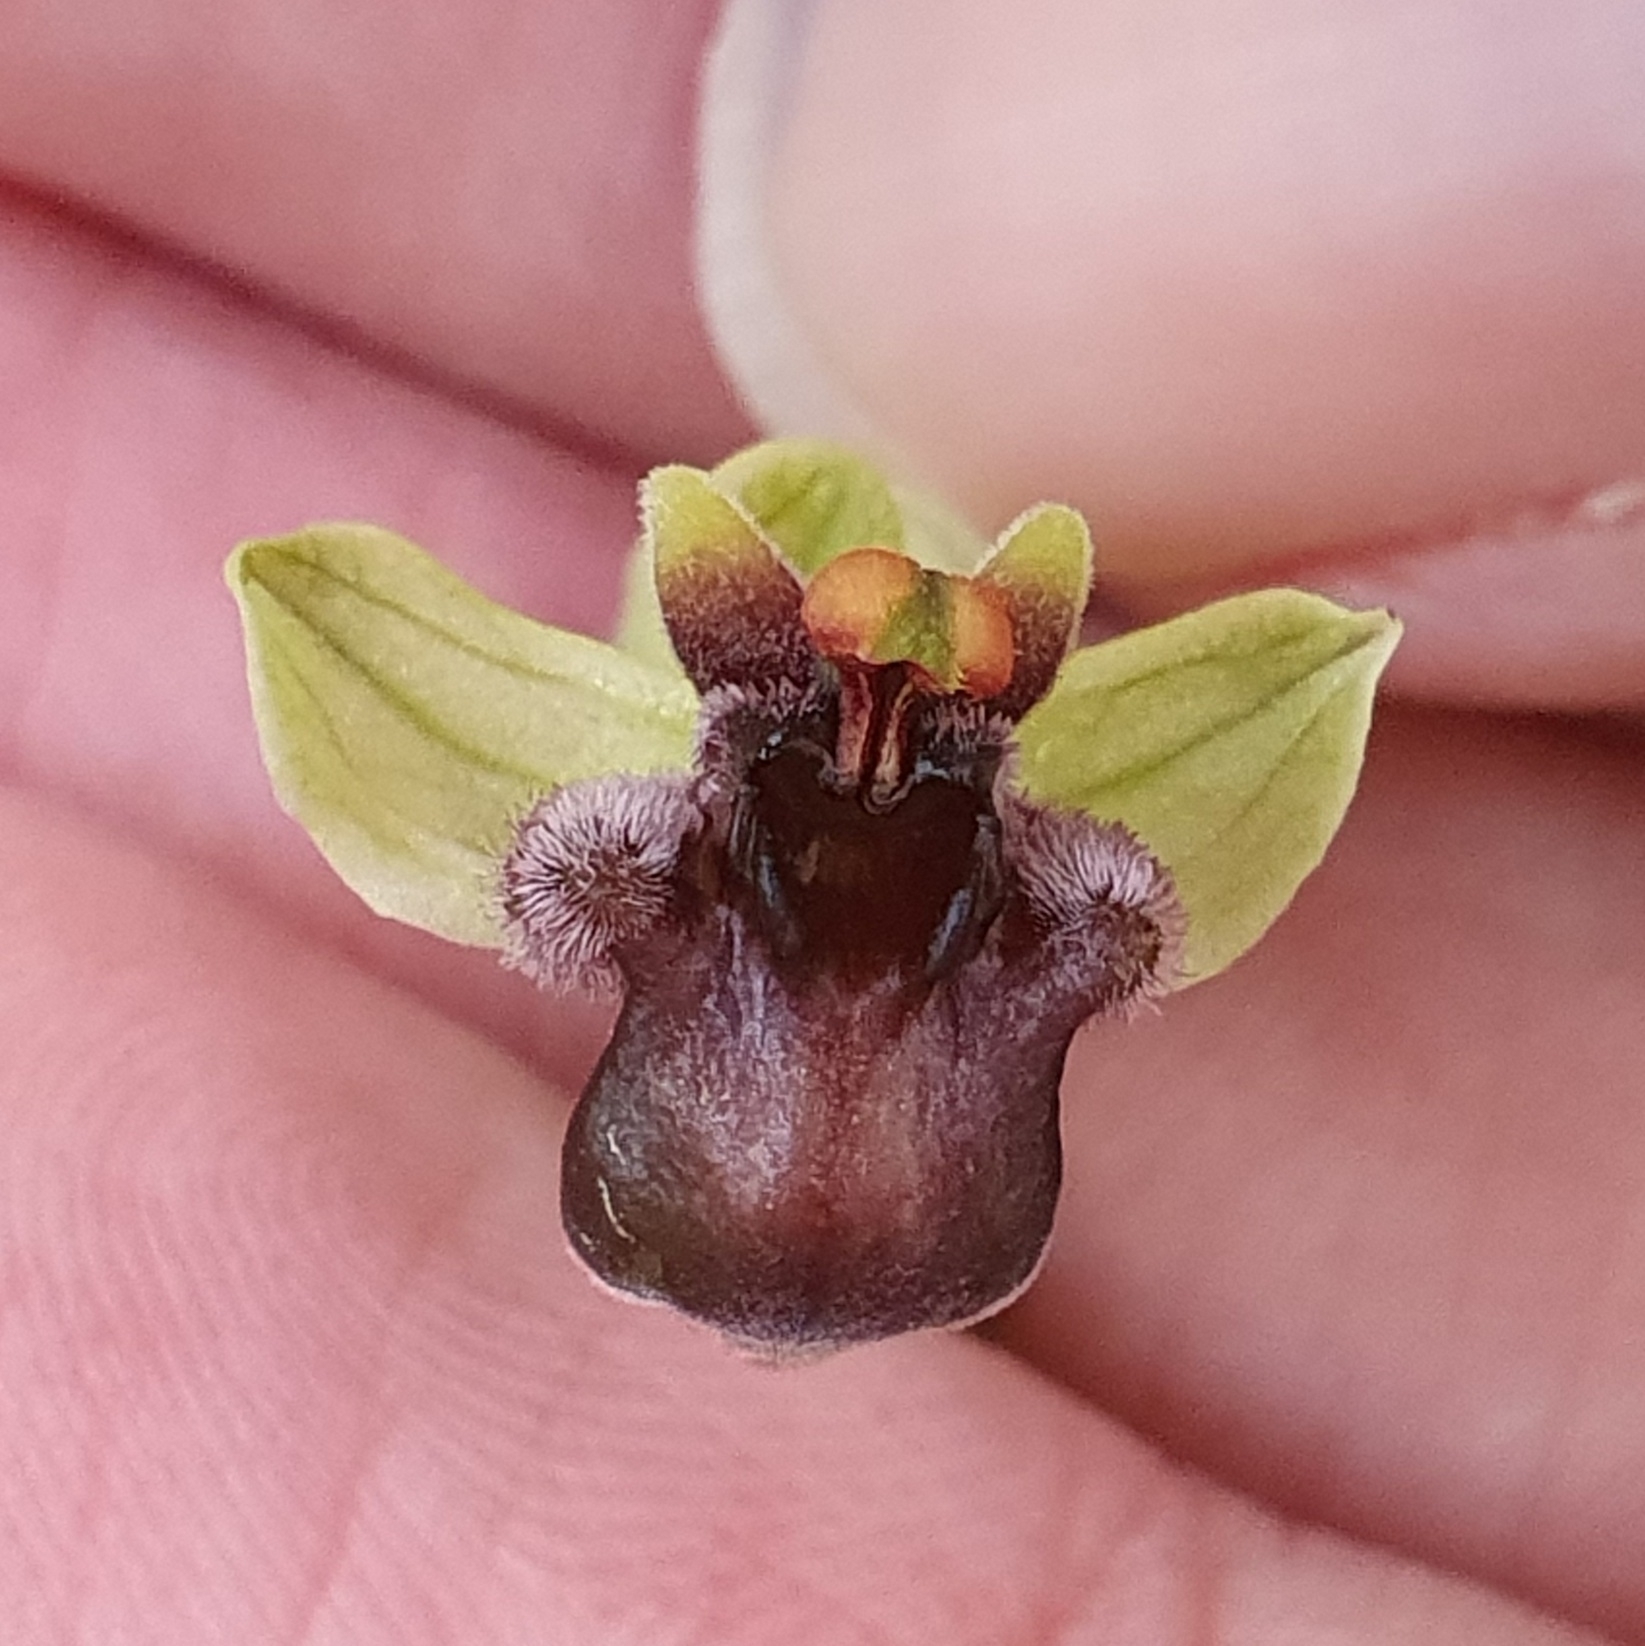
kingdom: Plantae
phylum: Tracheophyta
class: Liliopsida
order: Asparagales
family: Orchidaceae
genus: Ophrys
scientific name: Ophrys bombyliflora
